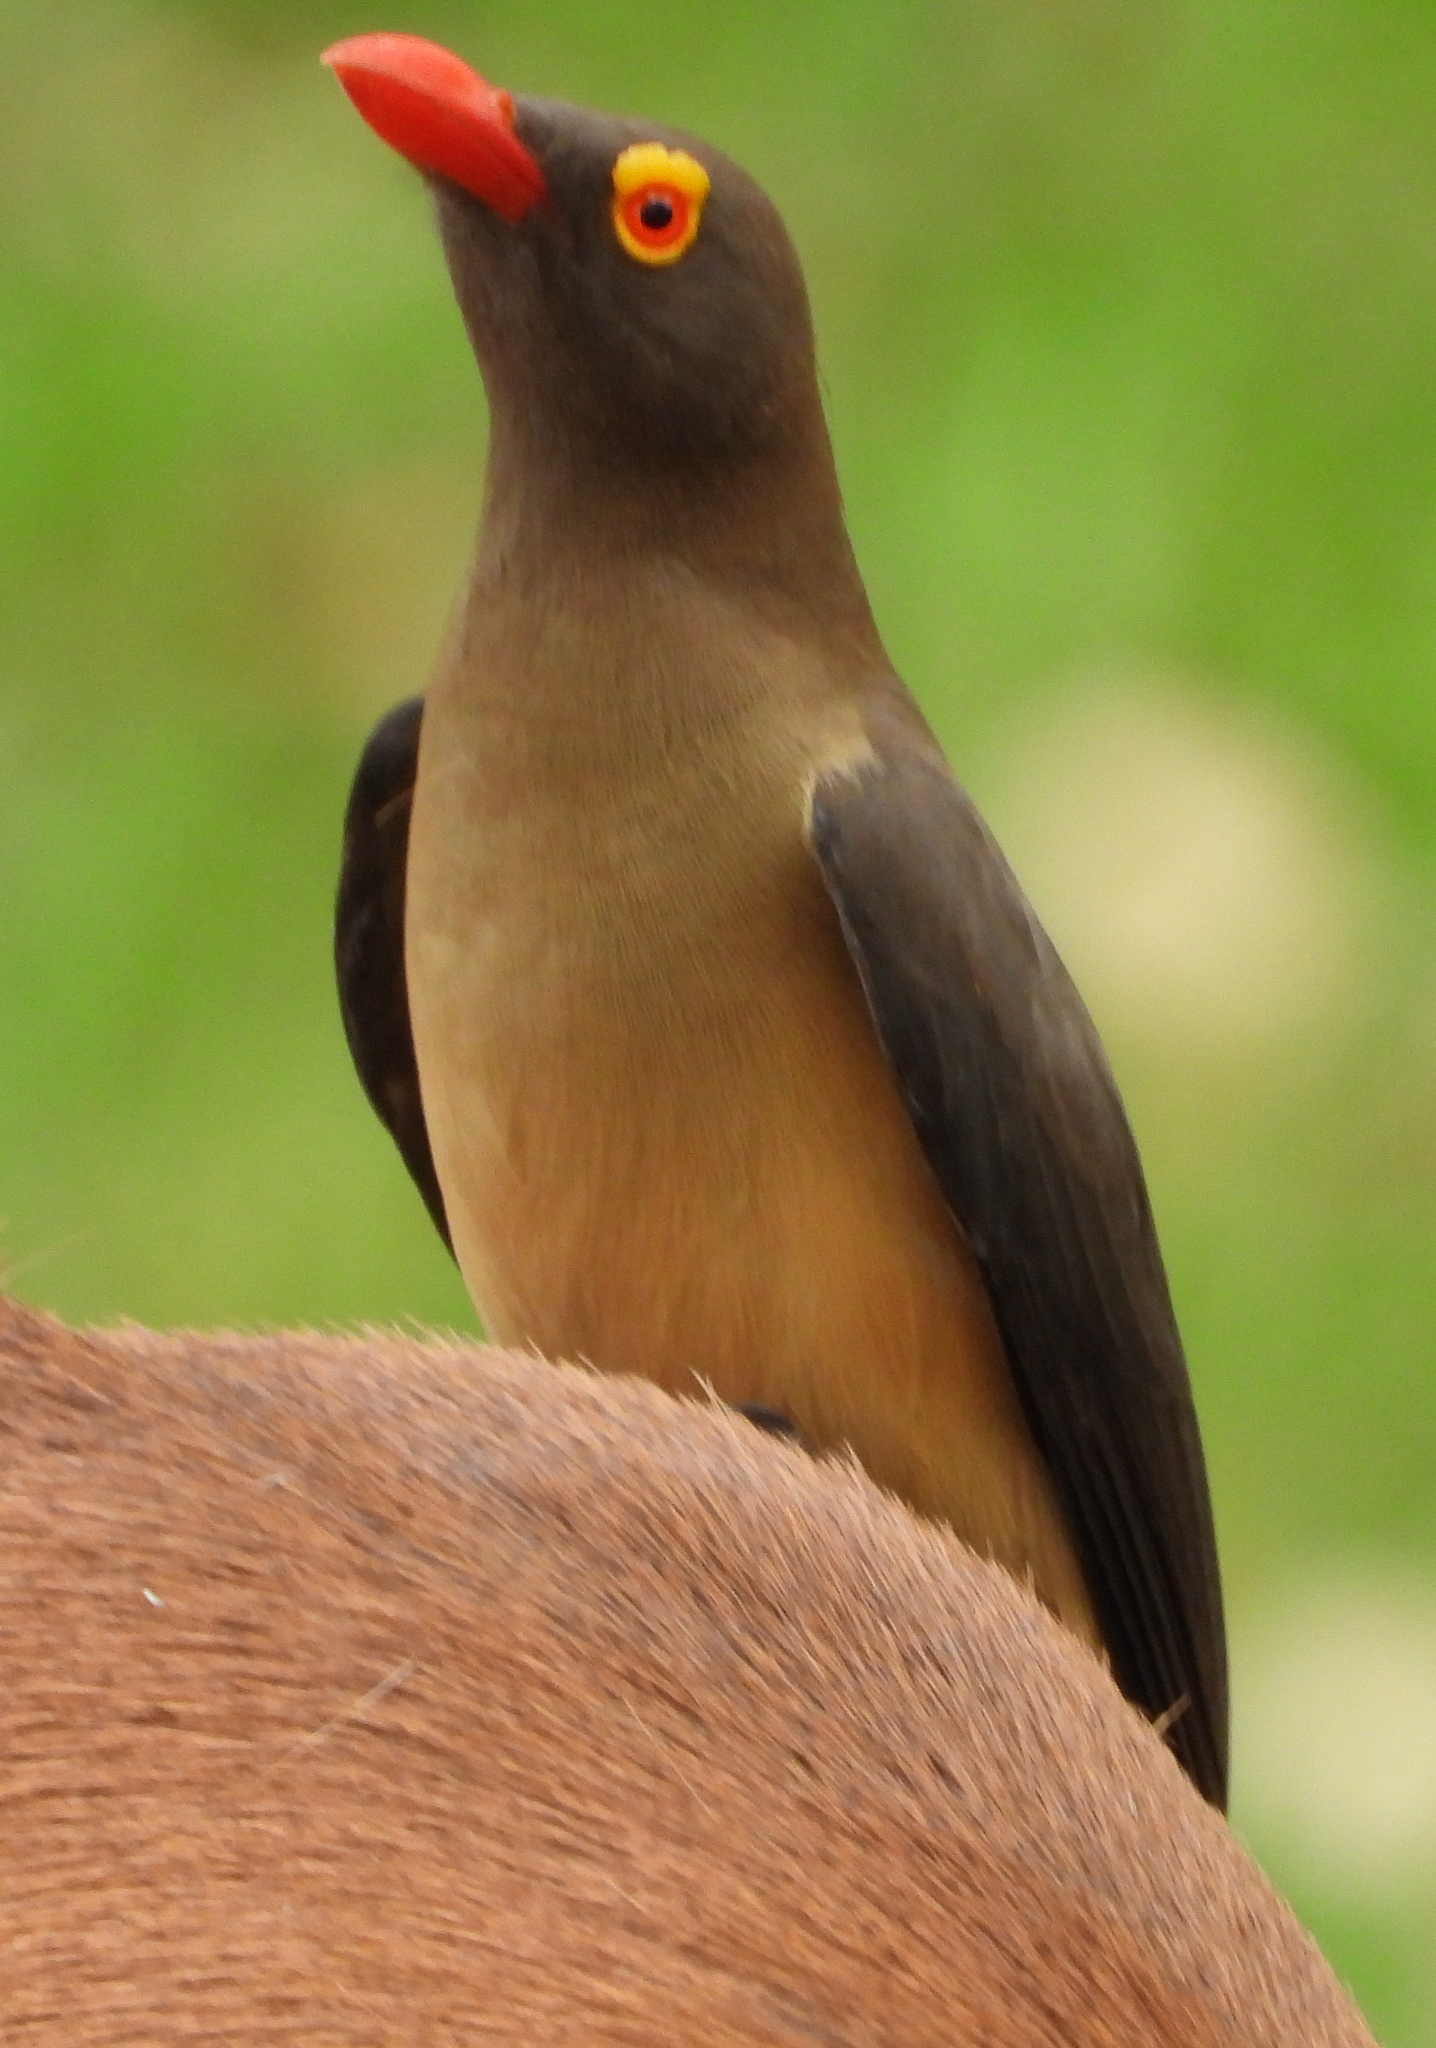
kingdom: Animalia
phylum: Chordata
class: Aves
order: Passeriformes
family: Buphagidae
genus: Buphagus
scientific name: Buphagus erythrorhynchus
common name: Red-billed oxpecker
